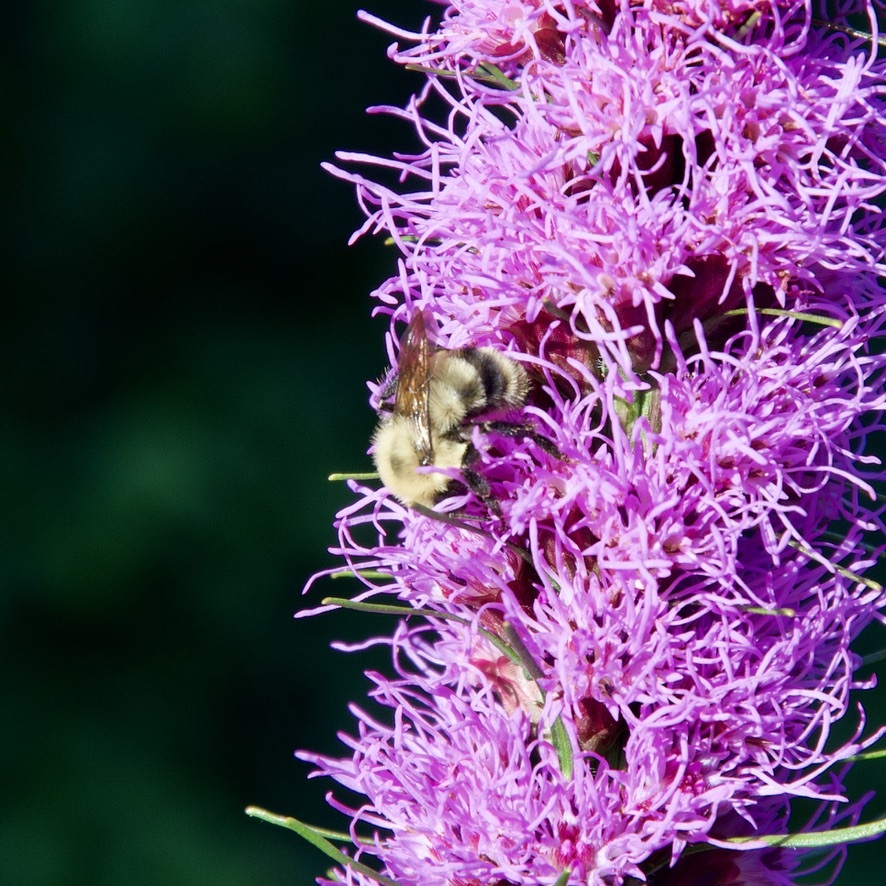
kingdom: Animalia
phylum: Arthropoda
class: Insecta
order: Hymenoptera
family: Apidae
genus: Bombus
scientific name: Bombus bimaculatus
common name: Two-spotted bumble bee
